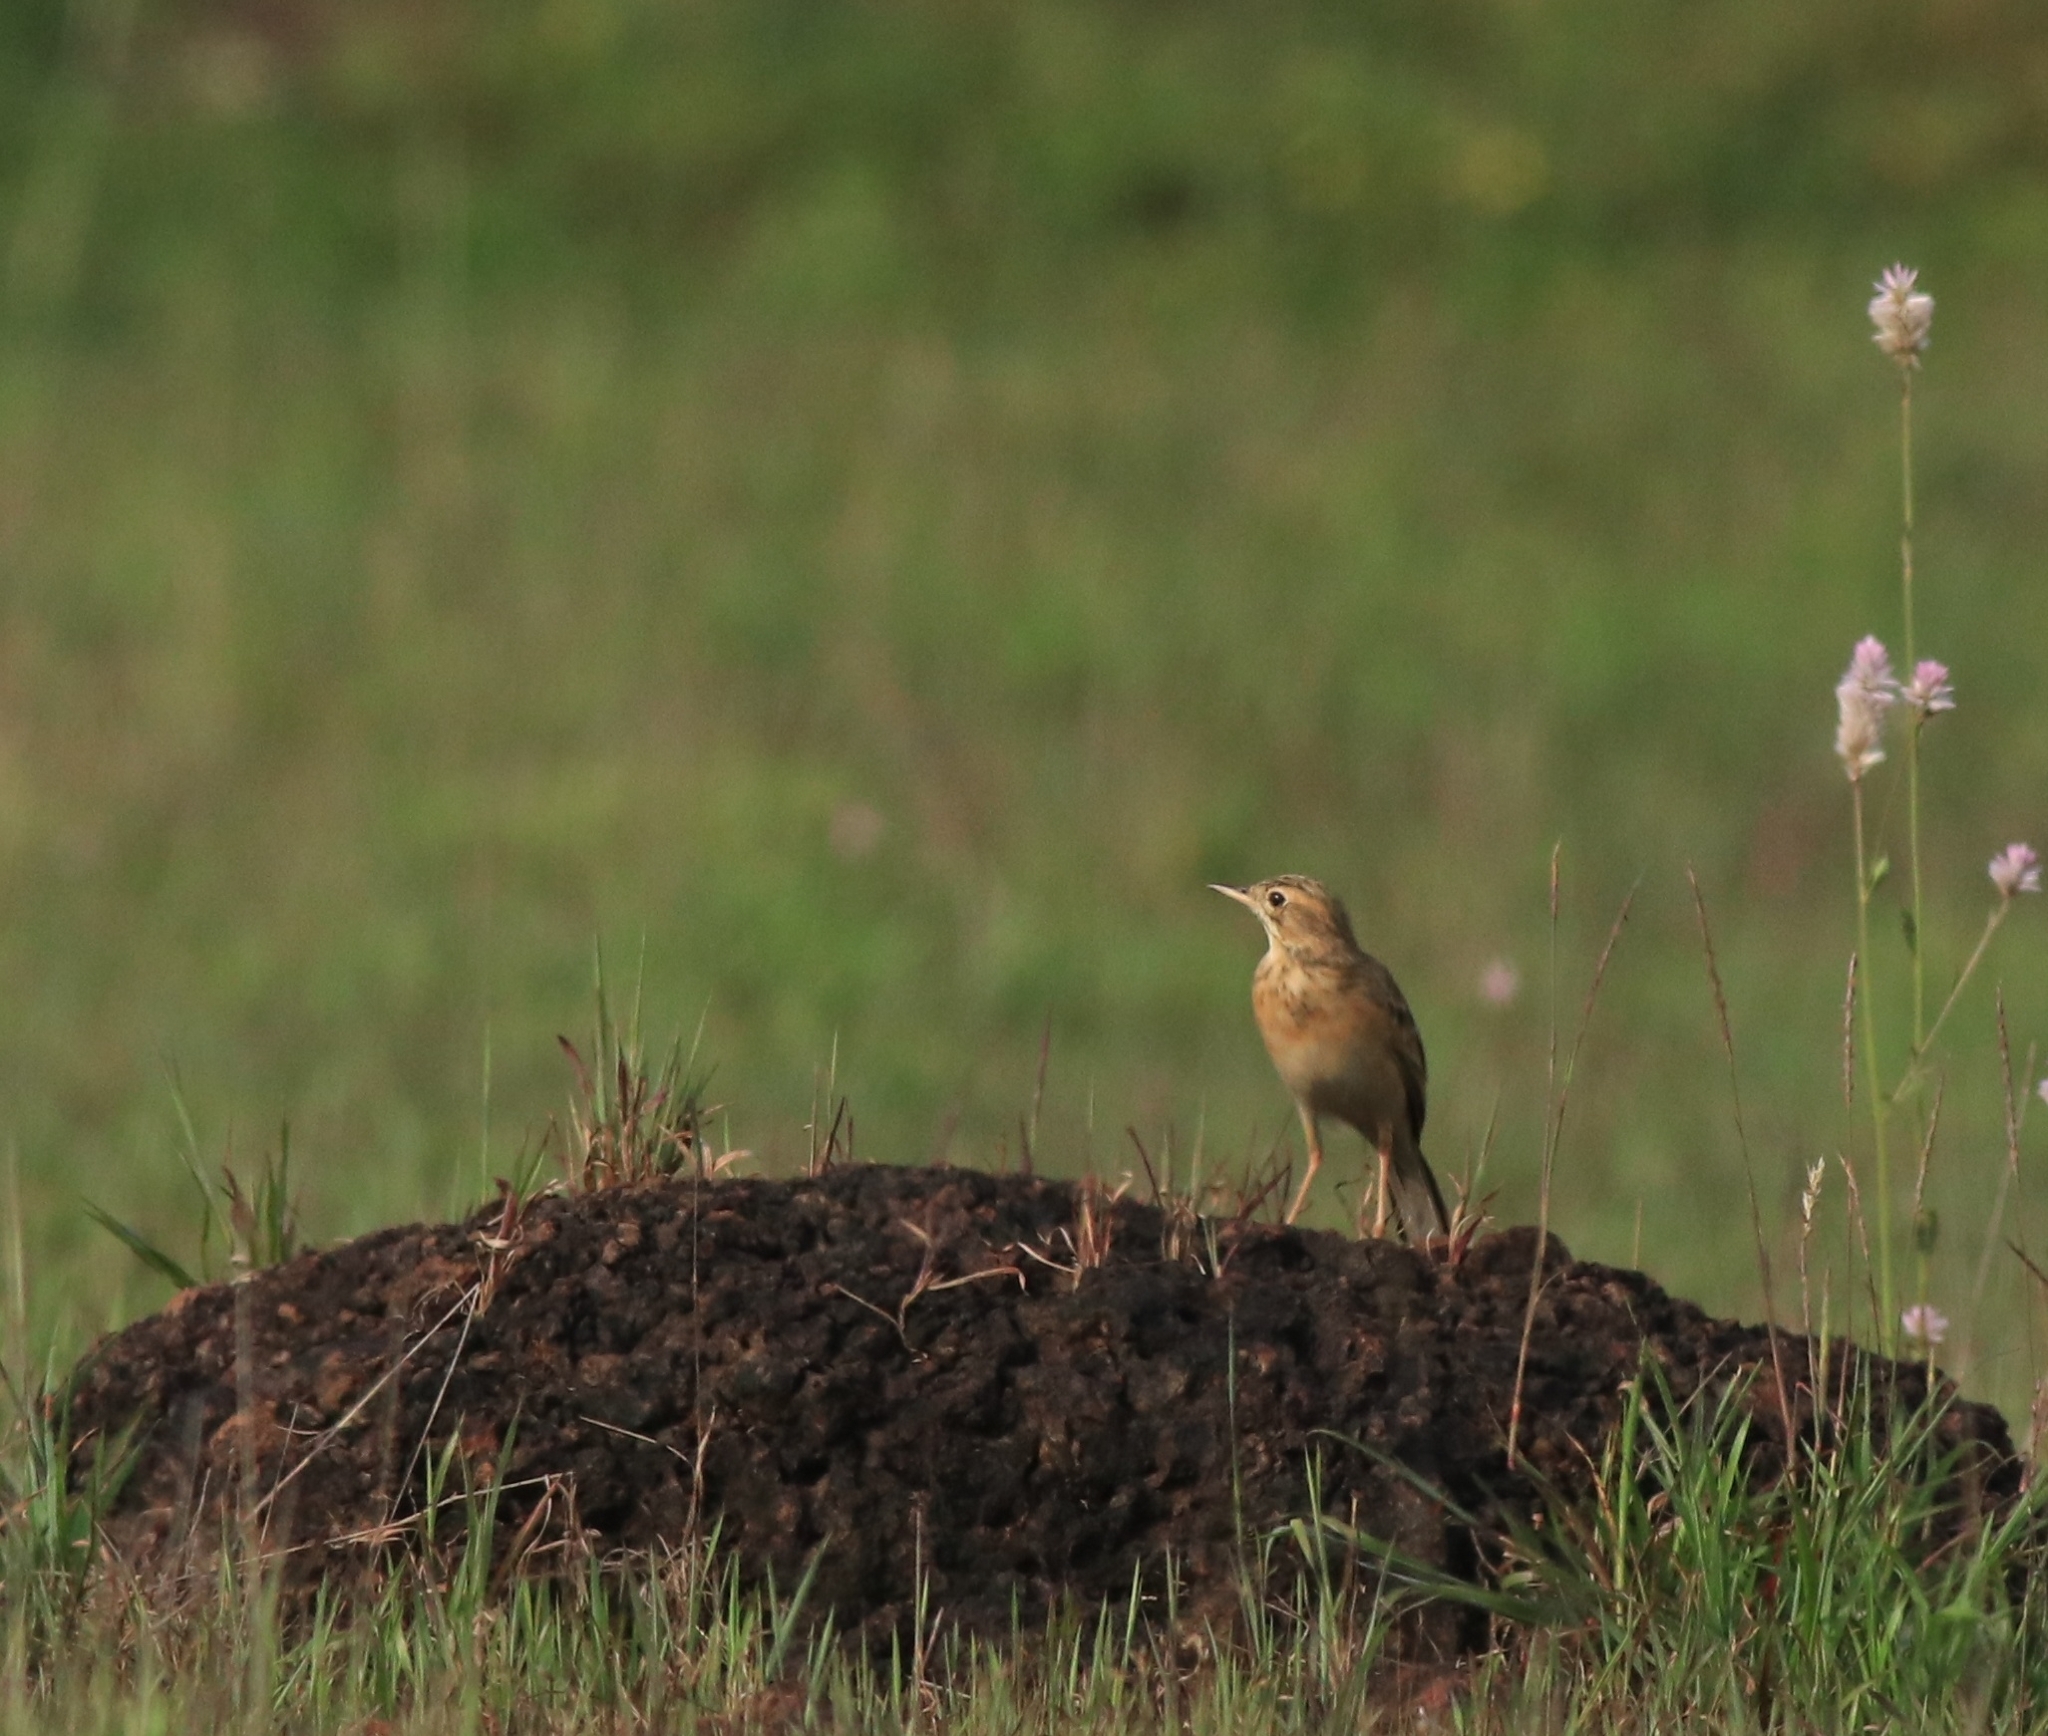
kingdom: Animalia
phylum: Chordata
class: Aves
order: Passeriformes
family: Motacillidae
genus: Anthus
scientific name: Anthus rufulus
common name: Paddyfield pipit
